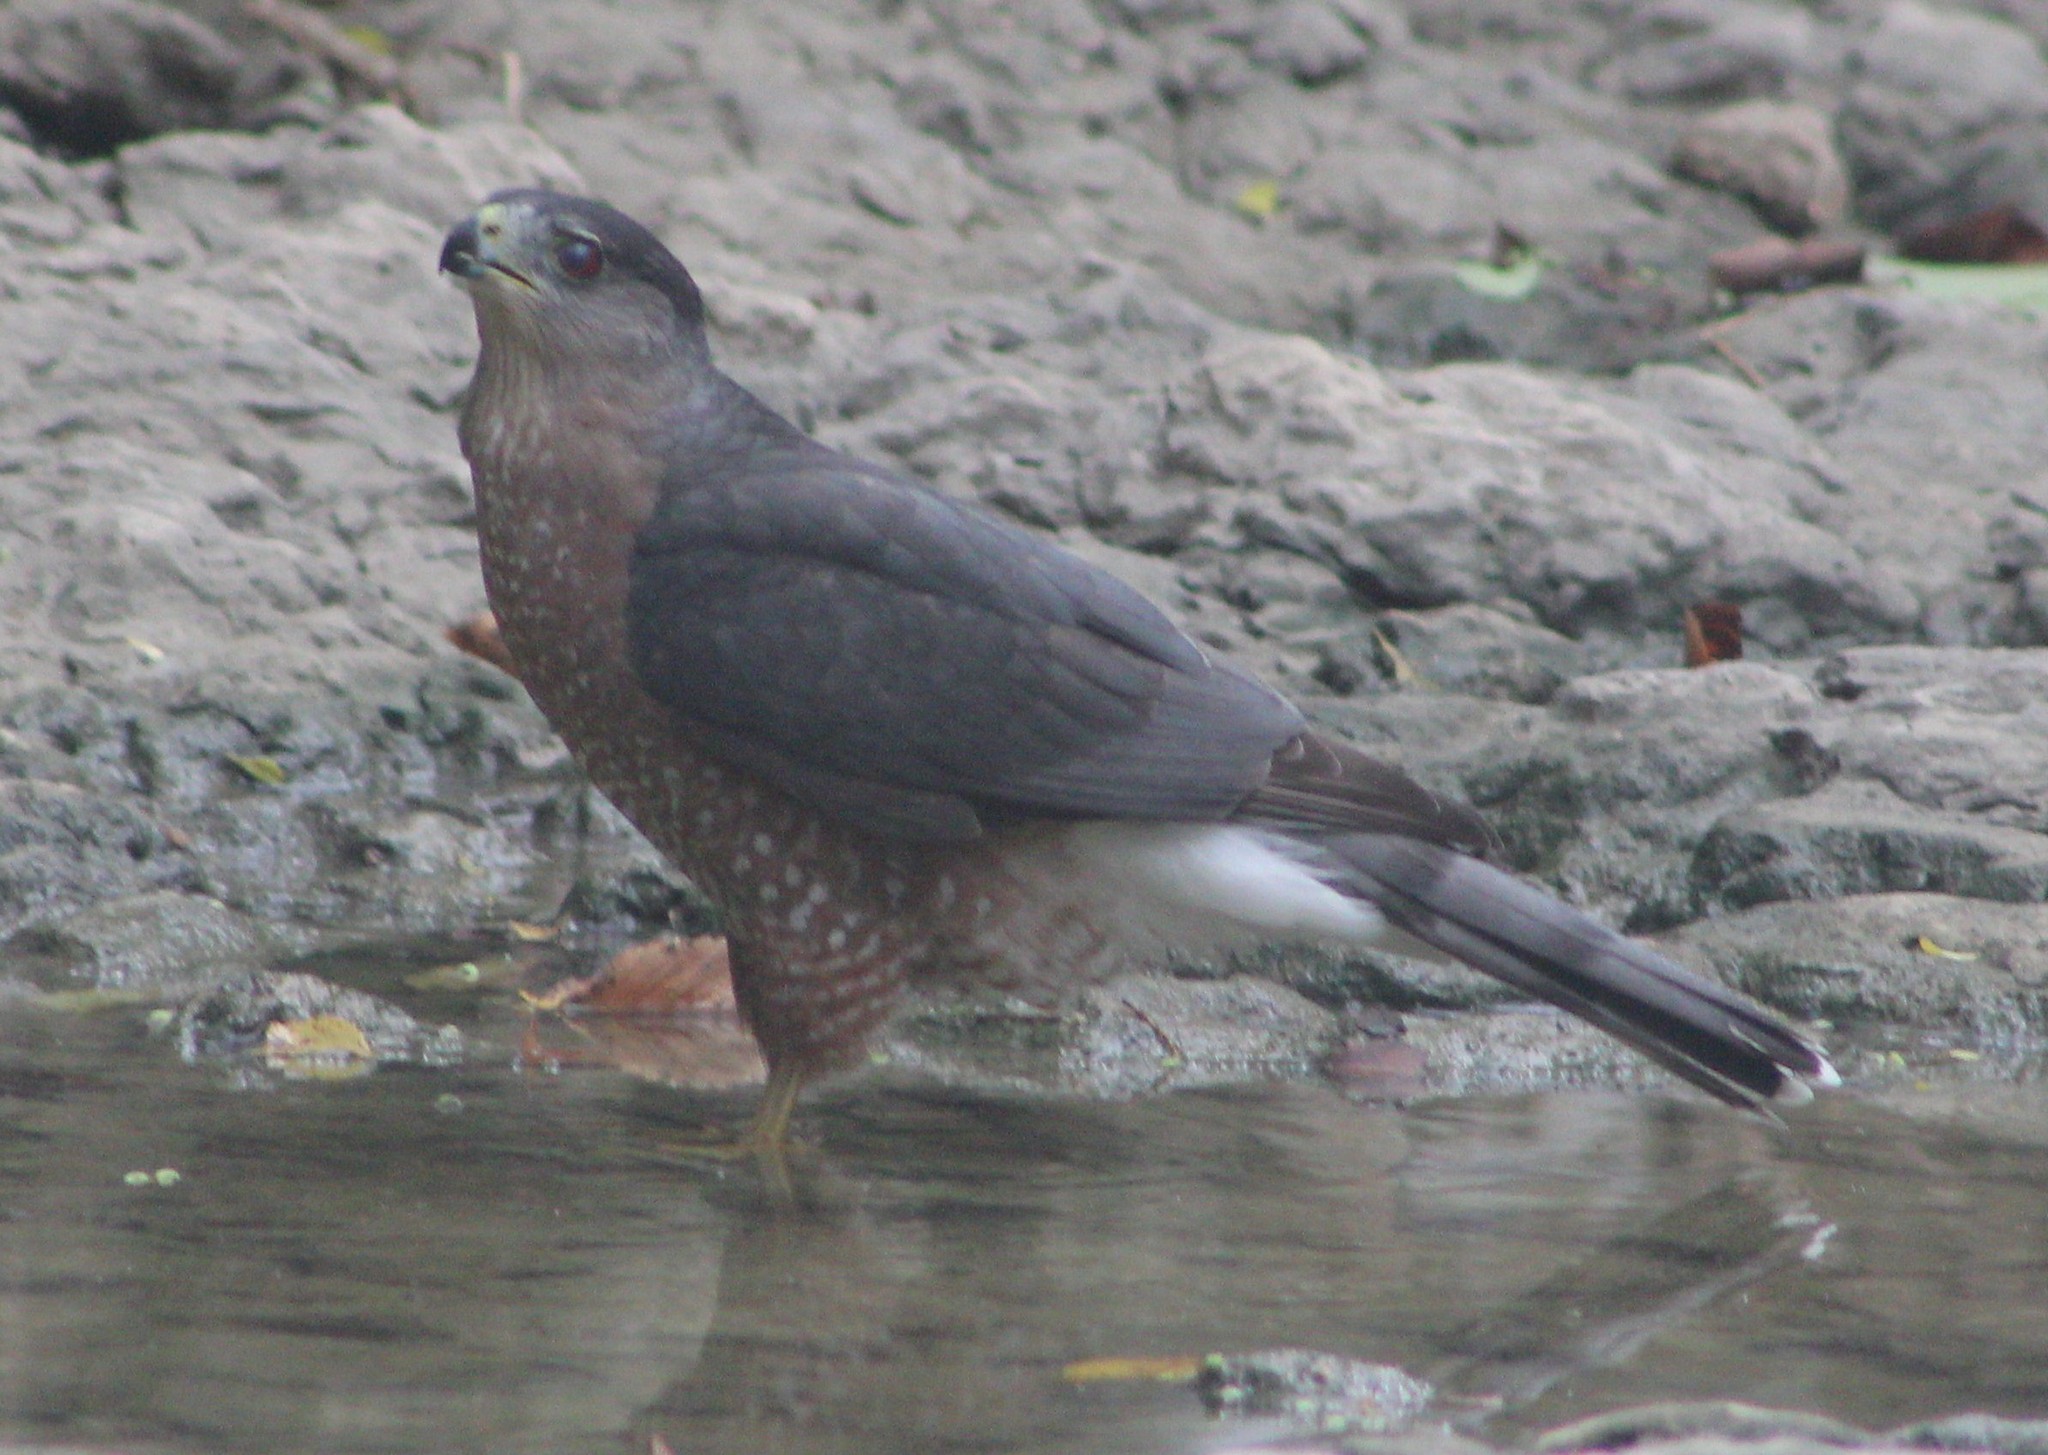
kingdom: Animalia
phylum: Chordata
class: Aves
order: Accipitriformes
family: Accipitridae
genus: Accipiter
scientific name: Accipiter cooperii
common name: Cooper's hawk
